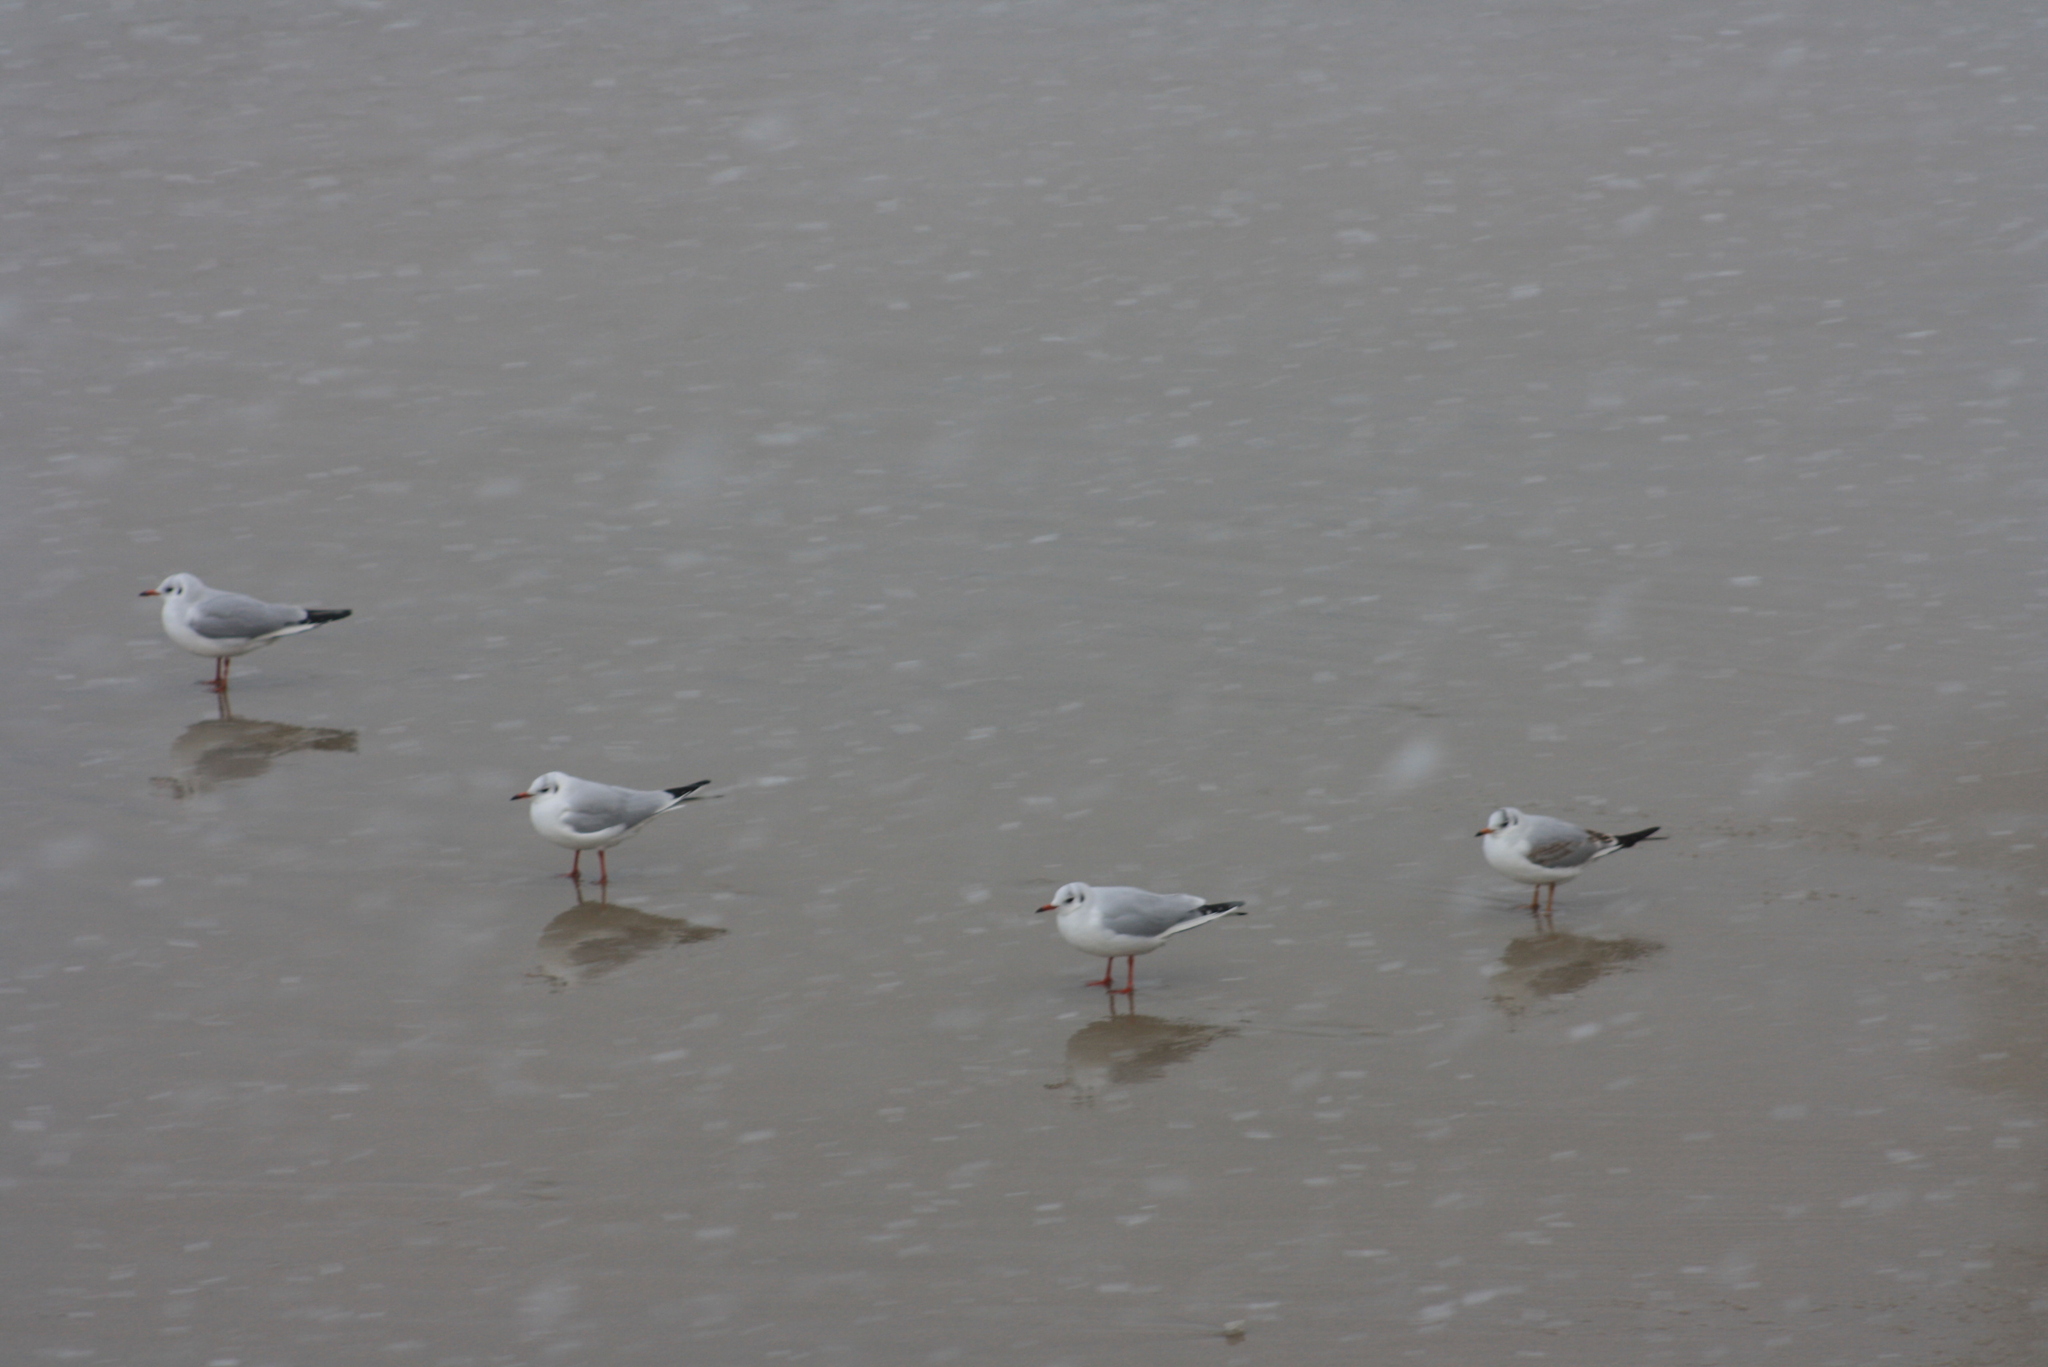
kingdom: Animalia
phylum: Chordata
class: Aves
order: Charadriiformes
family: Laridae
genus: Chroicocephalus
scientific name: Chroicocephalus ridibundus
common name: Black-headed gull
